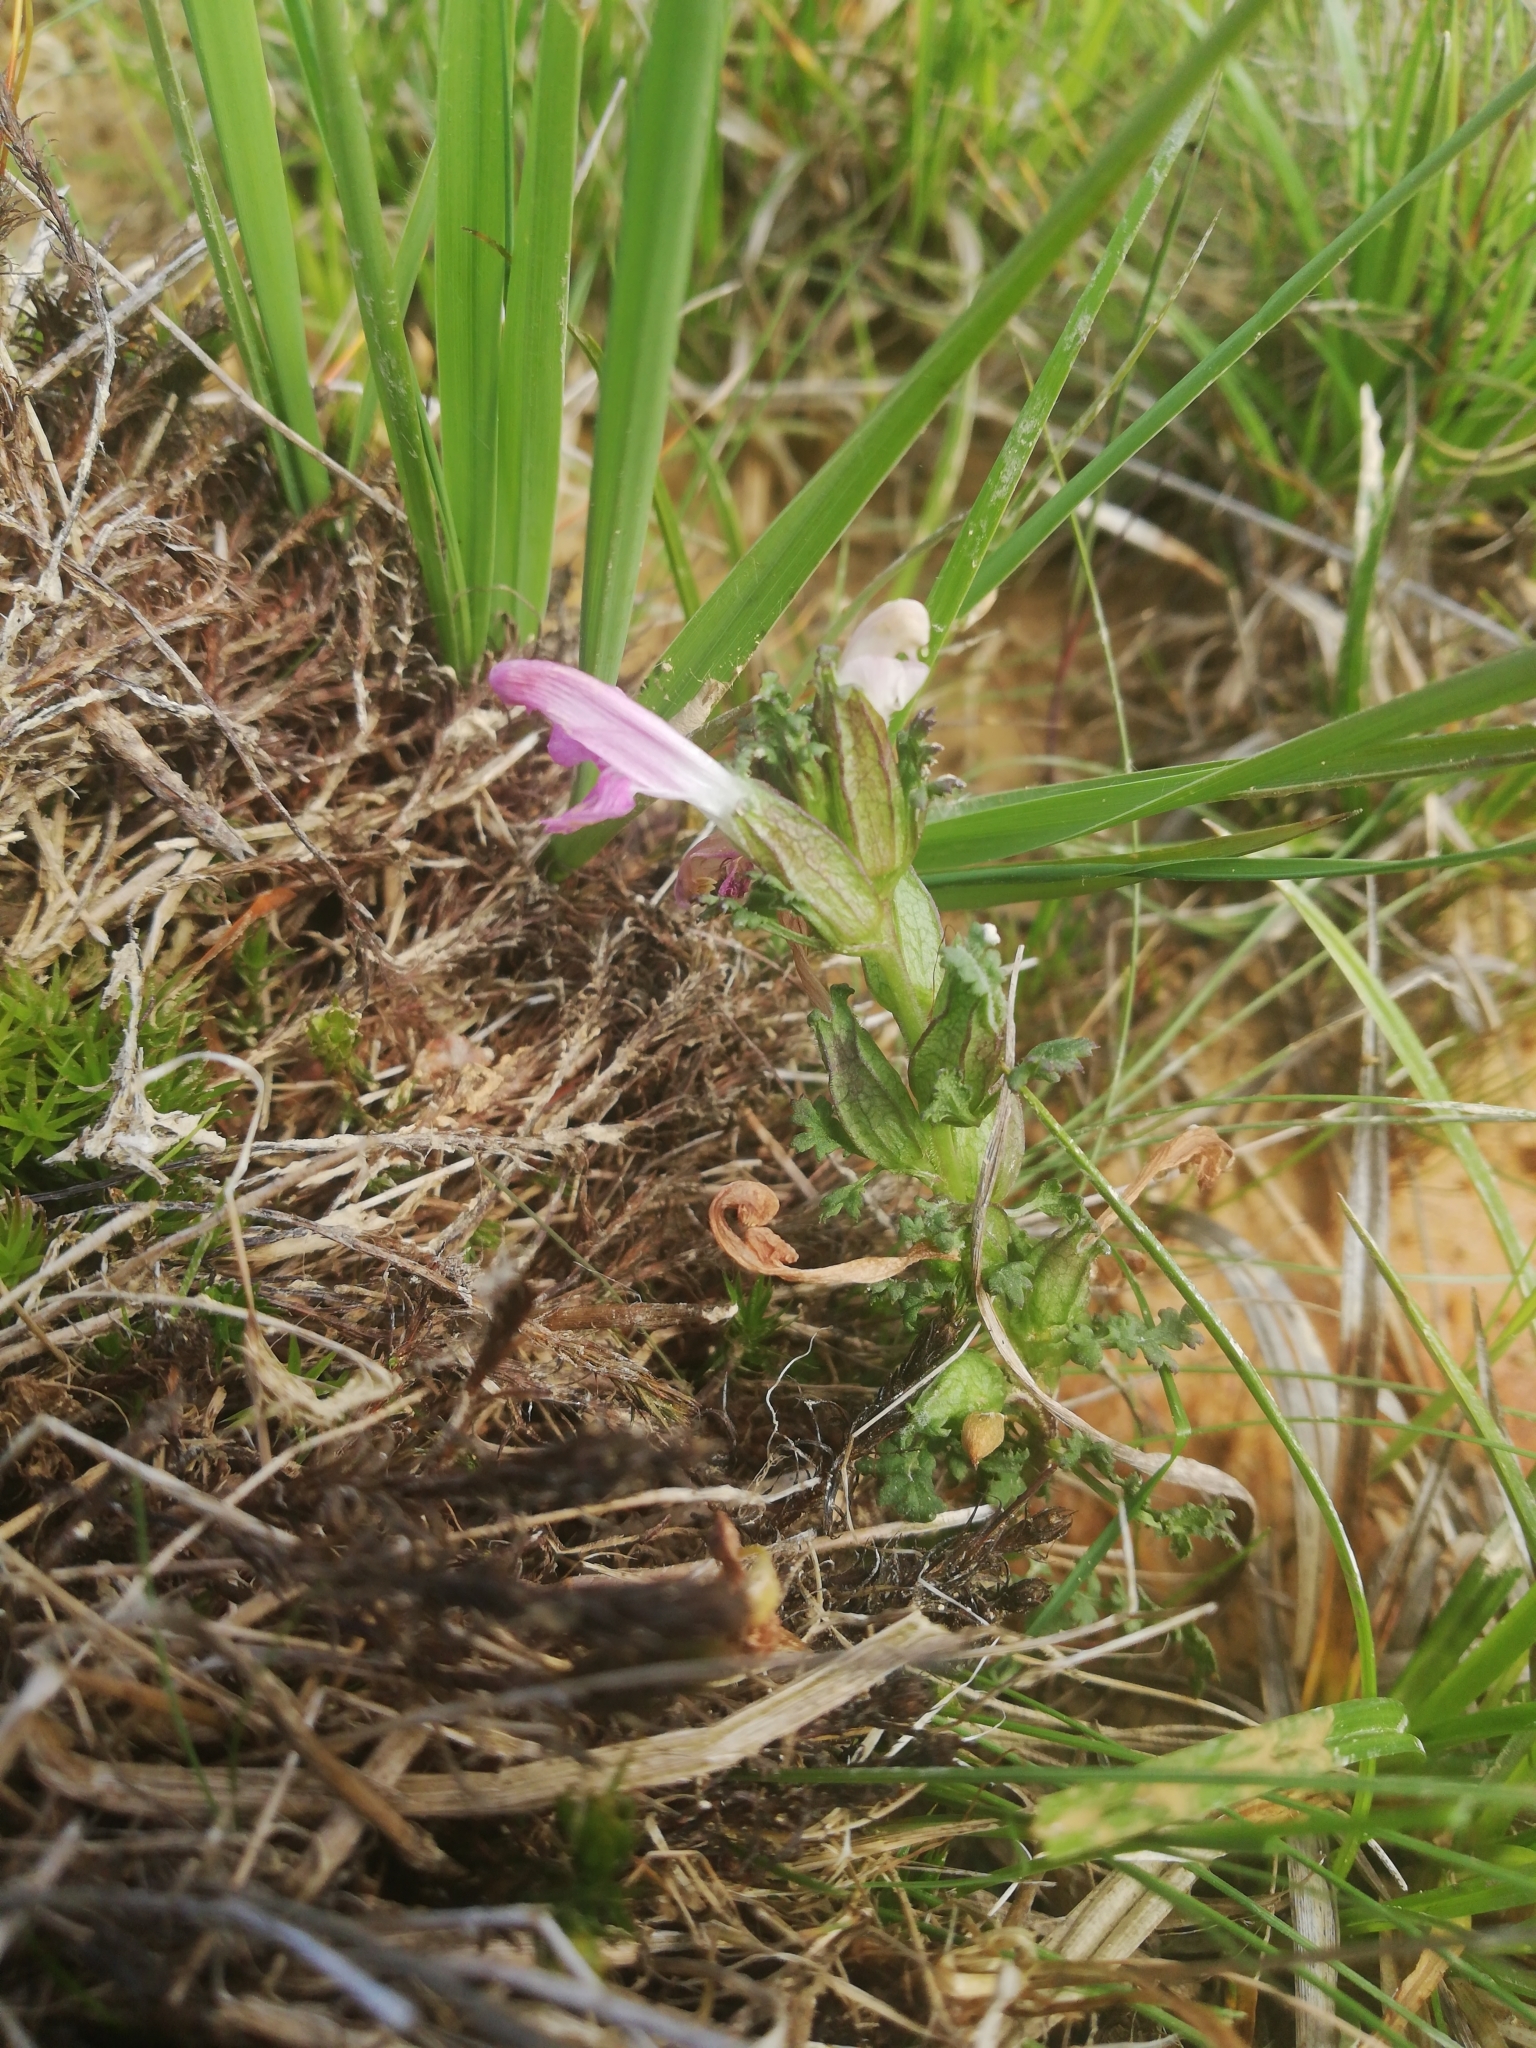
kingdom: Plantae
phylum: Tracheophyta
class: Magnoliopsida
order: Lamiales
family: Orobanchaceae
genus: Pedicularis
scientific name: Pedicularis sylvatica
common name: Lousewort
